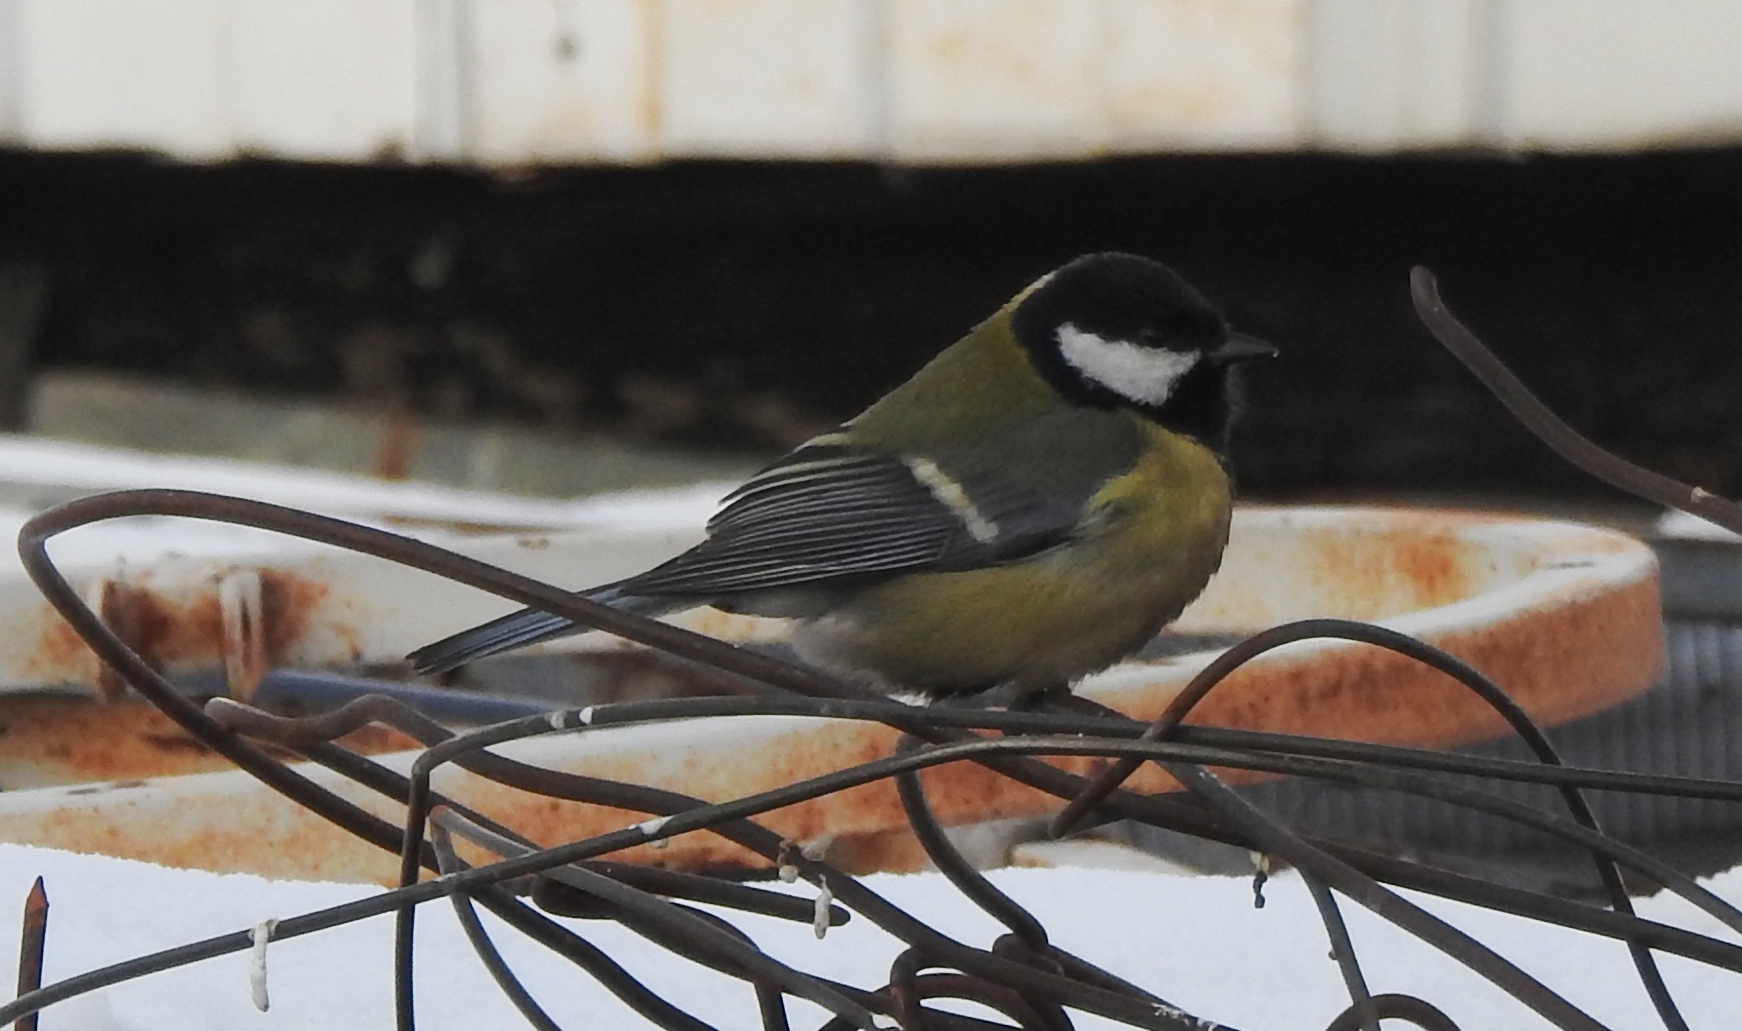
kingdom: Animalia
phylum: Chordata
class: Aves
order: Passeriformes
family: Paridae
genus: Parus
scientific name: Parus major
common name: Great tit
